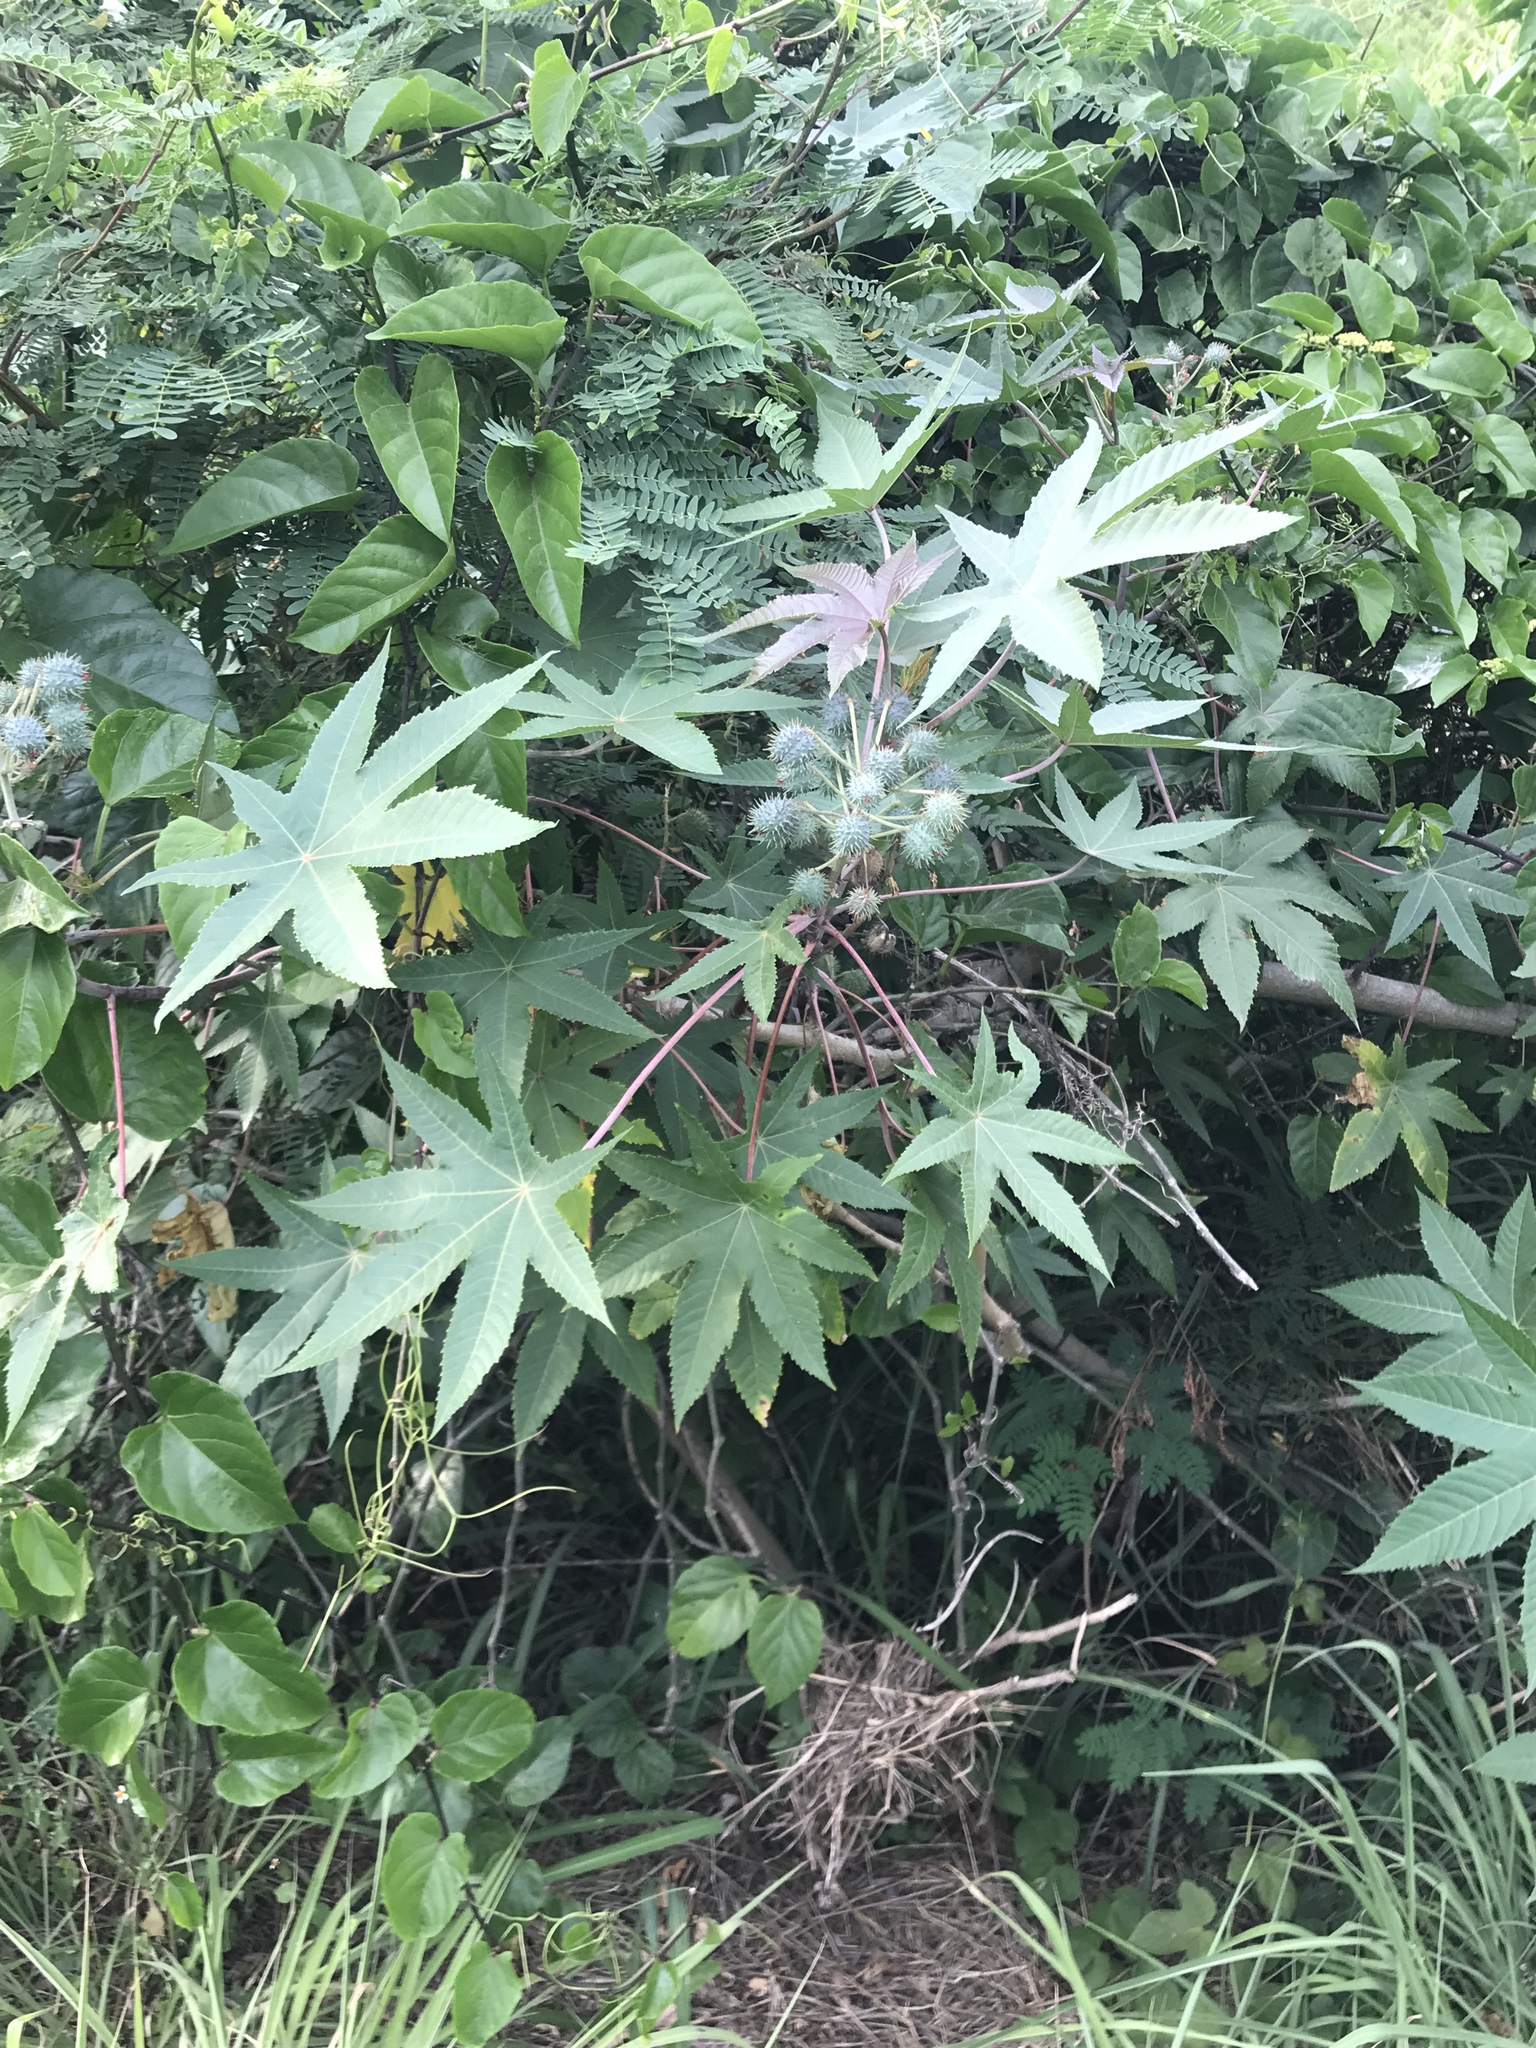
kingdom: Plantae
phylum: Tracheophyta
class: Magnoliopsida
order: Malpighiales
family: Euphorbiaceae
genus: Ricinus
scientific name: Ricinus communis
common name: Castor-oil-plant
